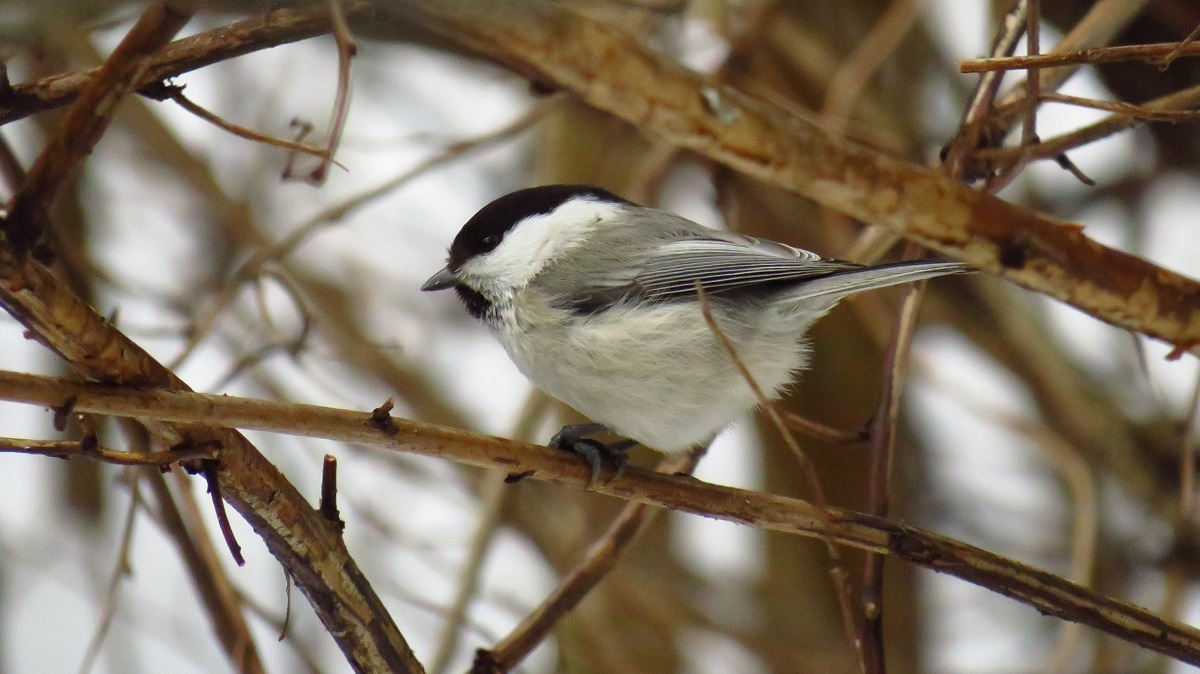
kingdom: Animalia
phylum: Chordata
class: Aves
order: Passeriformes
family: Paridae
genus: Poecile
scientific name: Poecile montanus
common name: Willow tit
